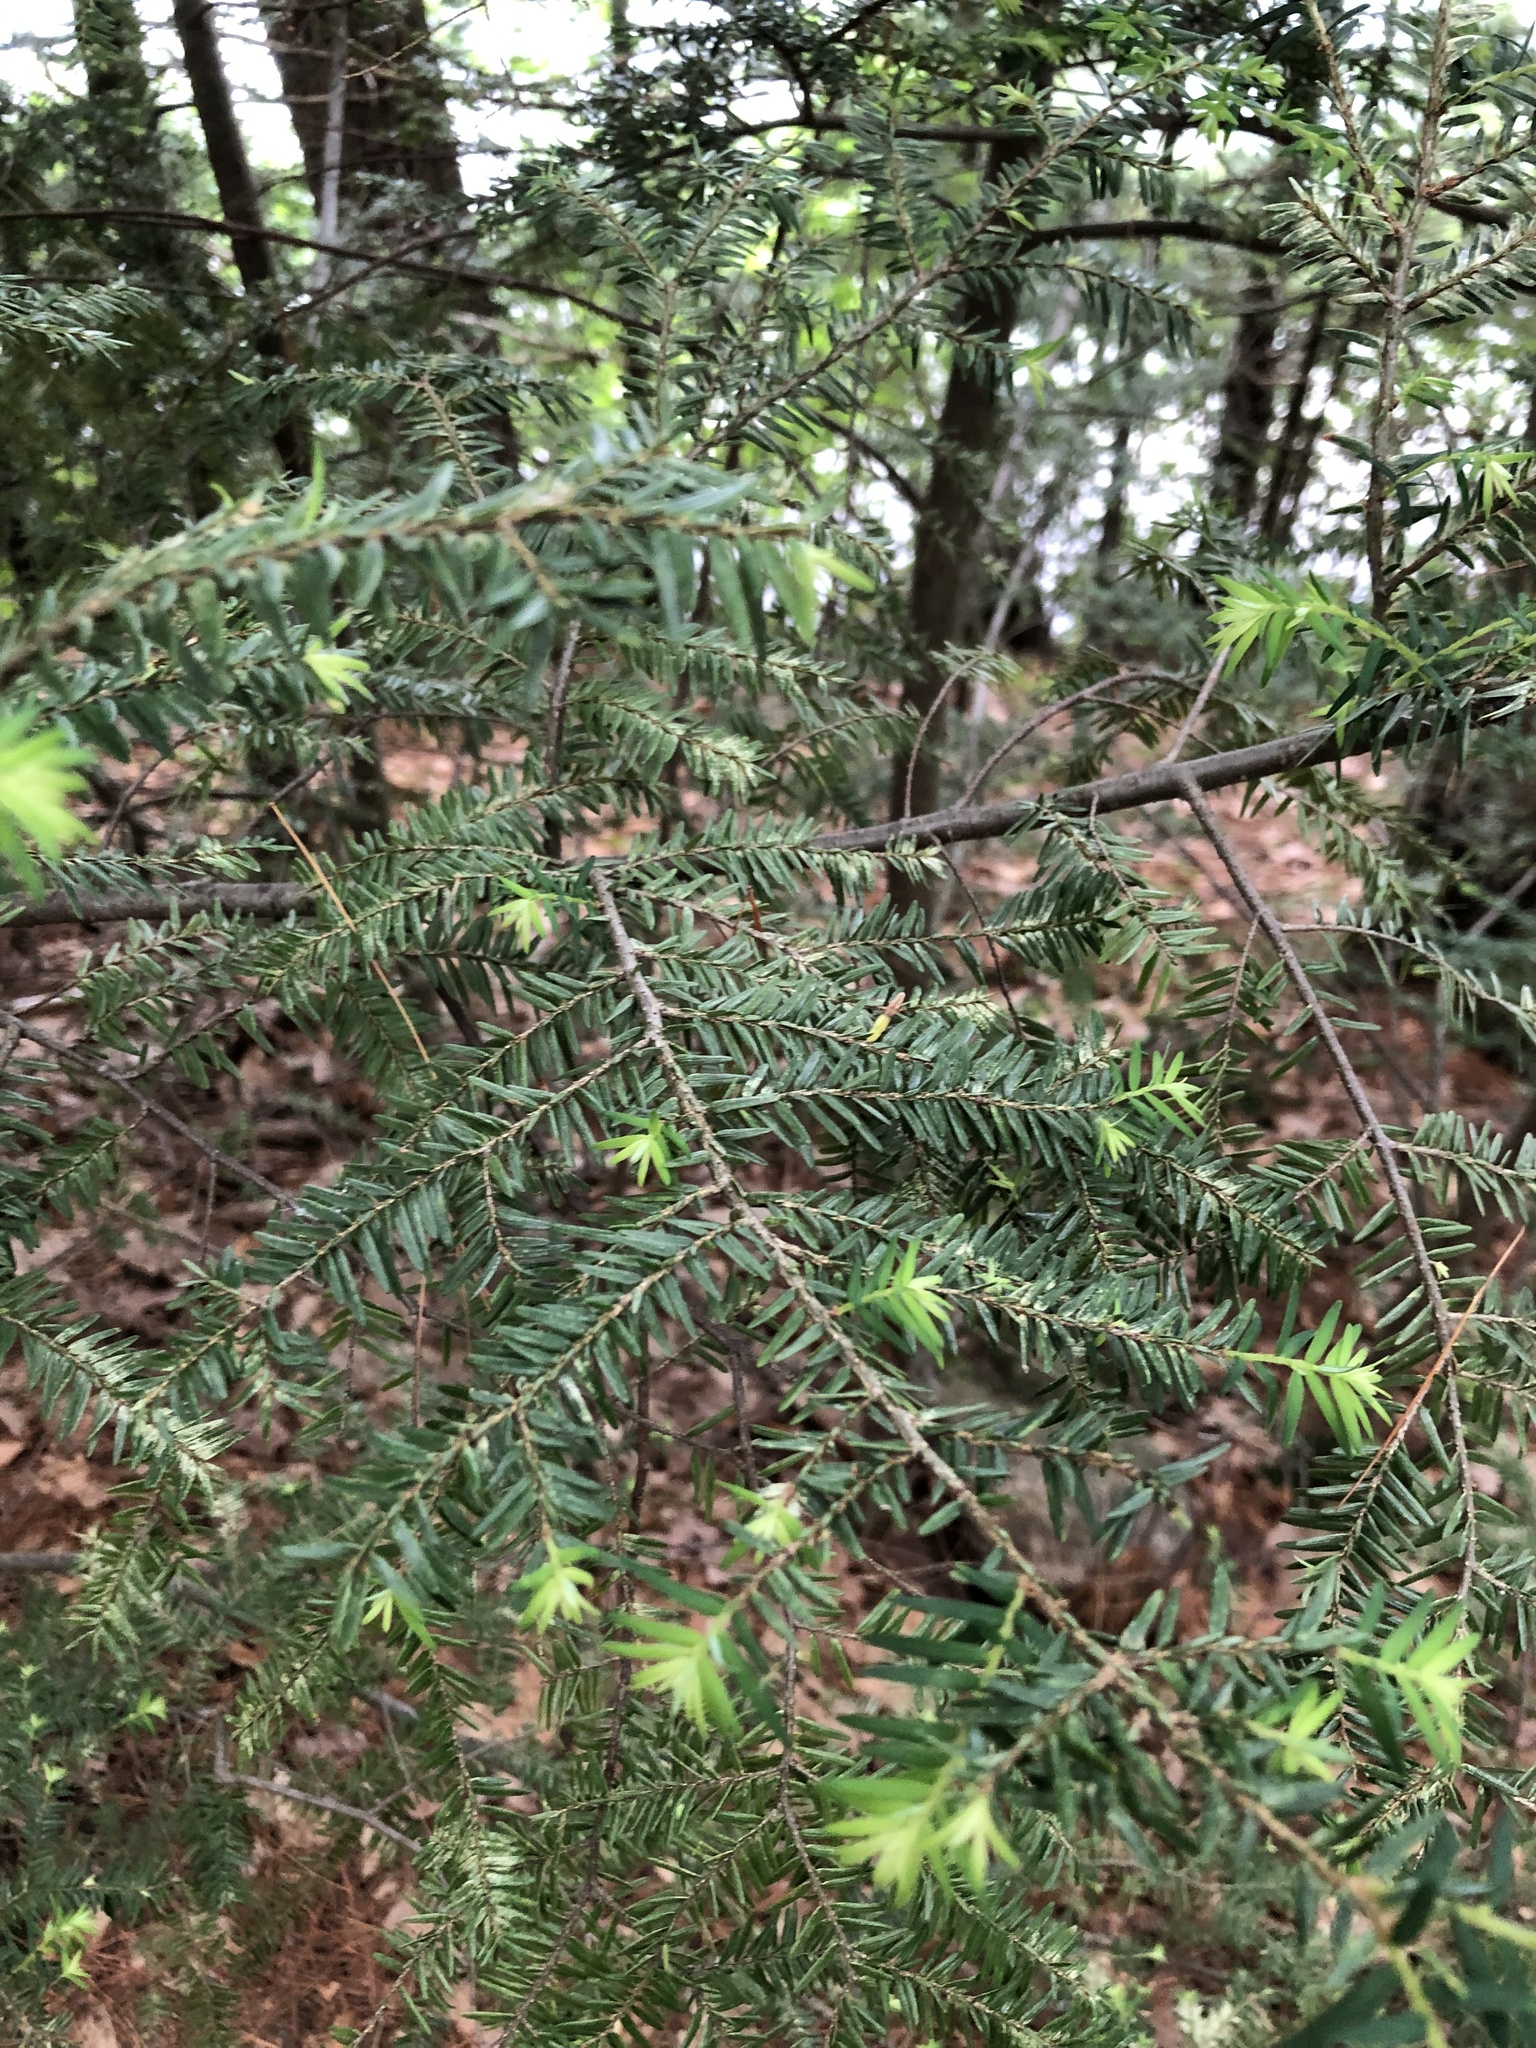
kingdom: Plantae
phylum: Tracheophyta
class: Pinopsida
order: Pinales
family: Pinaceae
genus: Tsuga
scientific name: Tsuga canadensis
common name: Eastern hemlock
